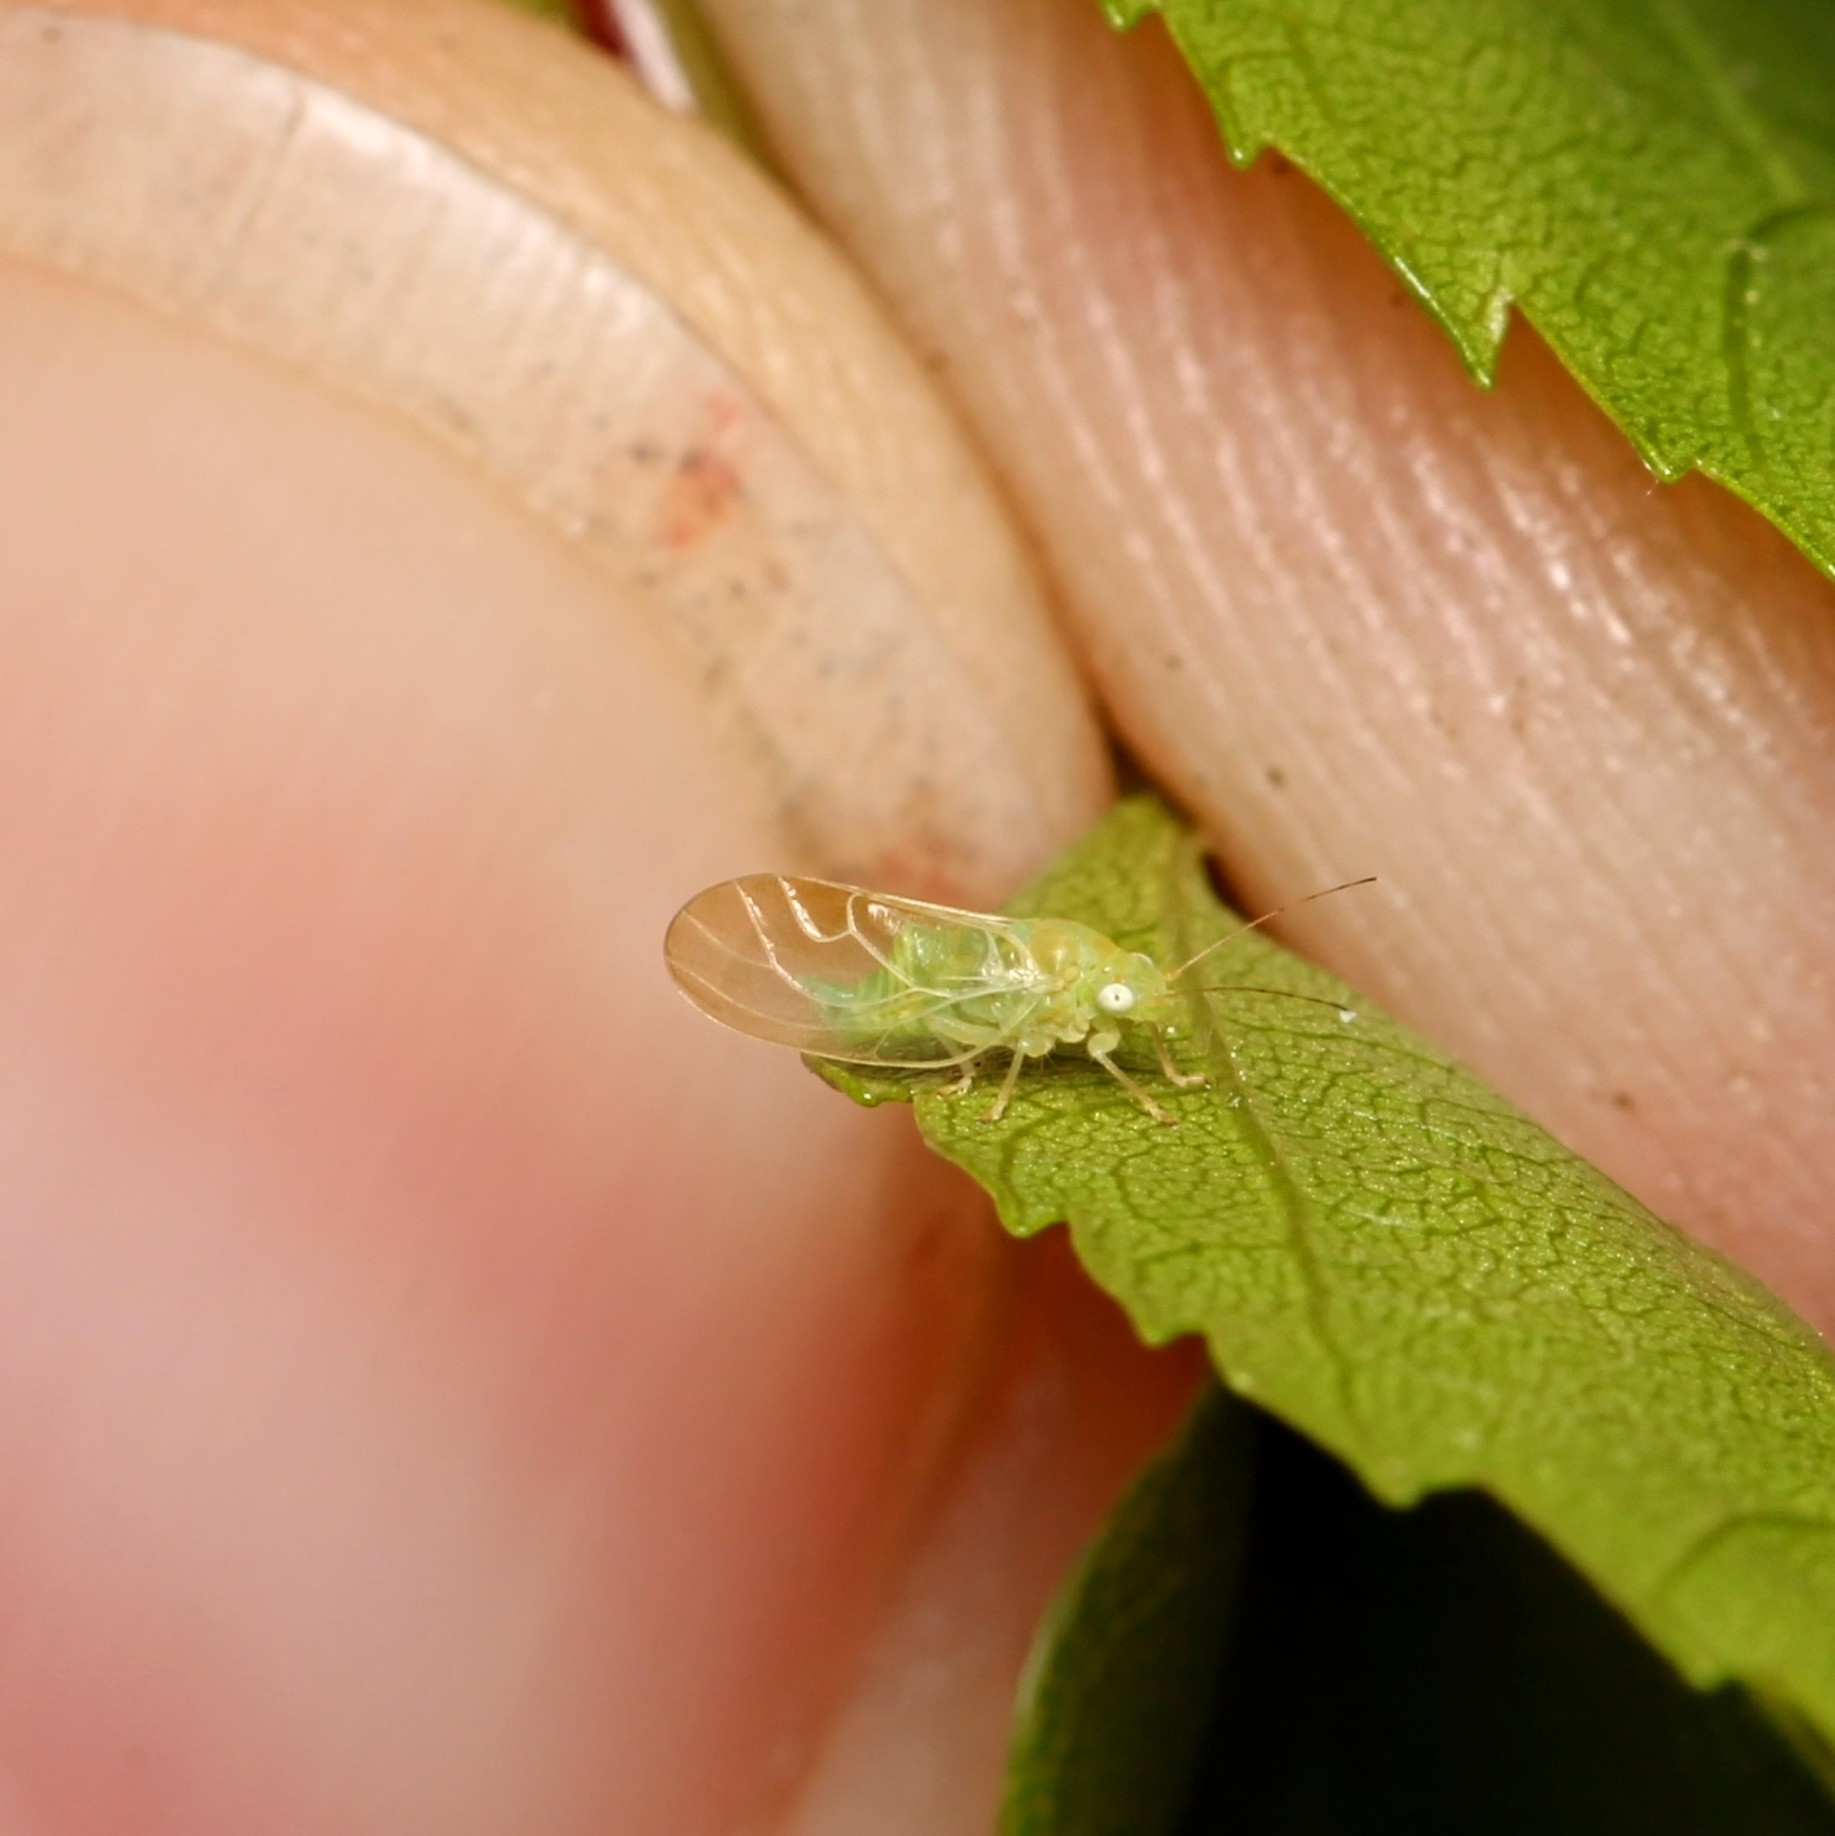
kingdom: Animalia
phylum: Arthropoda
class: Insecta
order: Hemiptera
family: Psyllidae
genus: Psylla
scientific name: Psylla carpinicola
